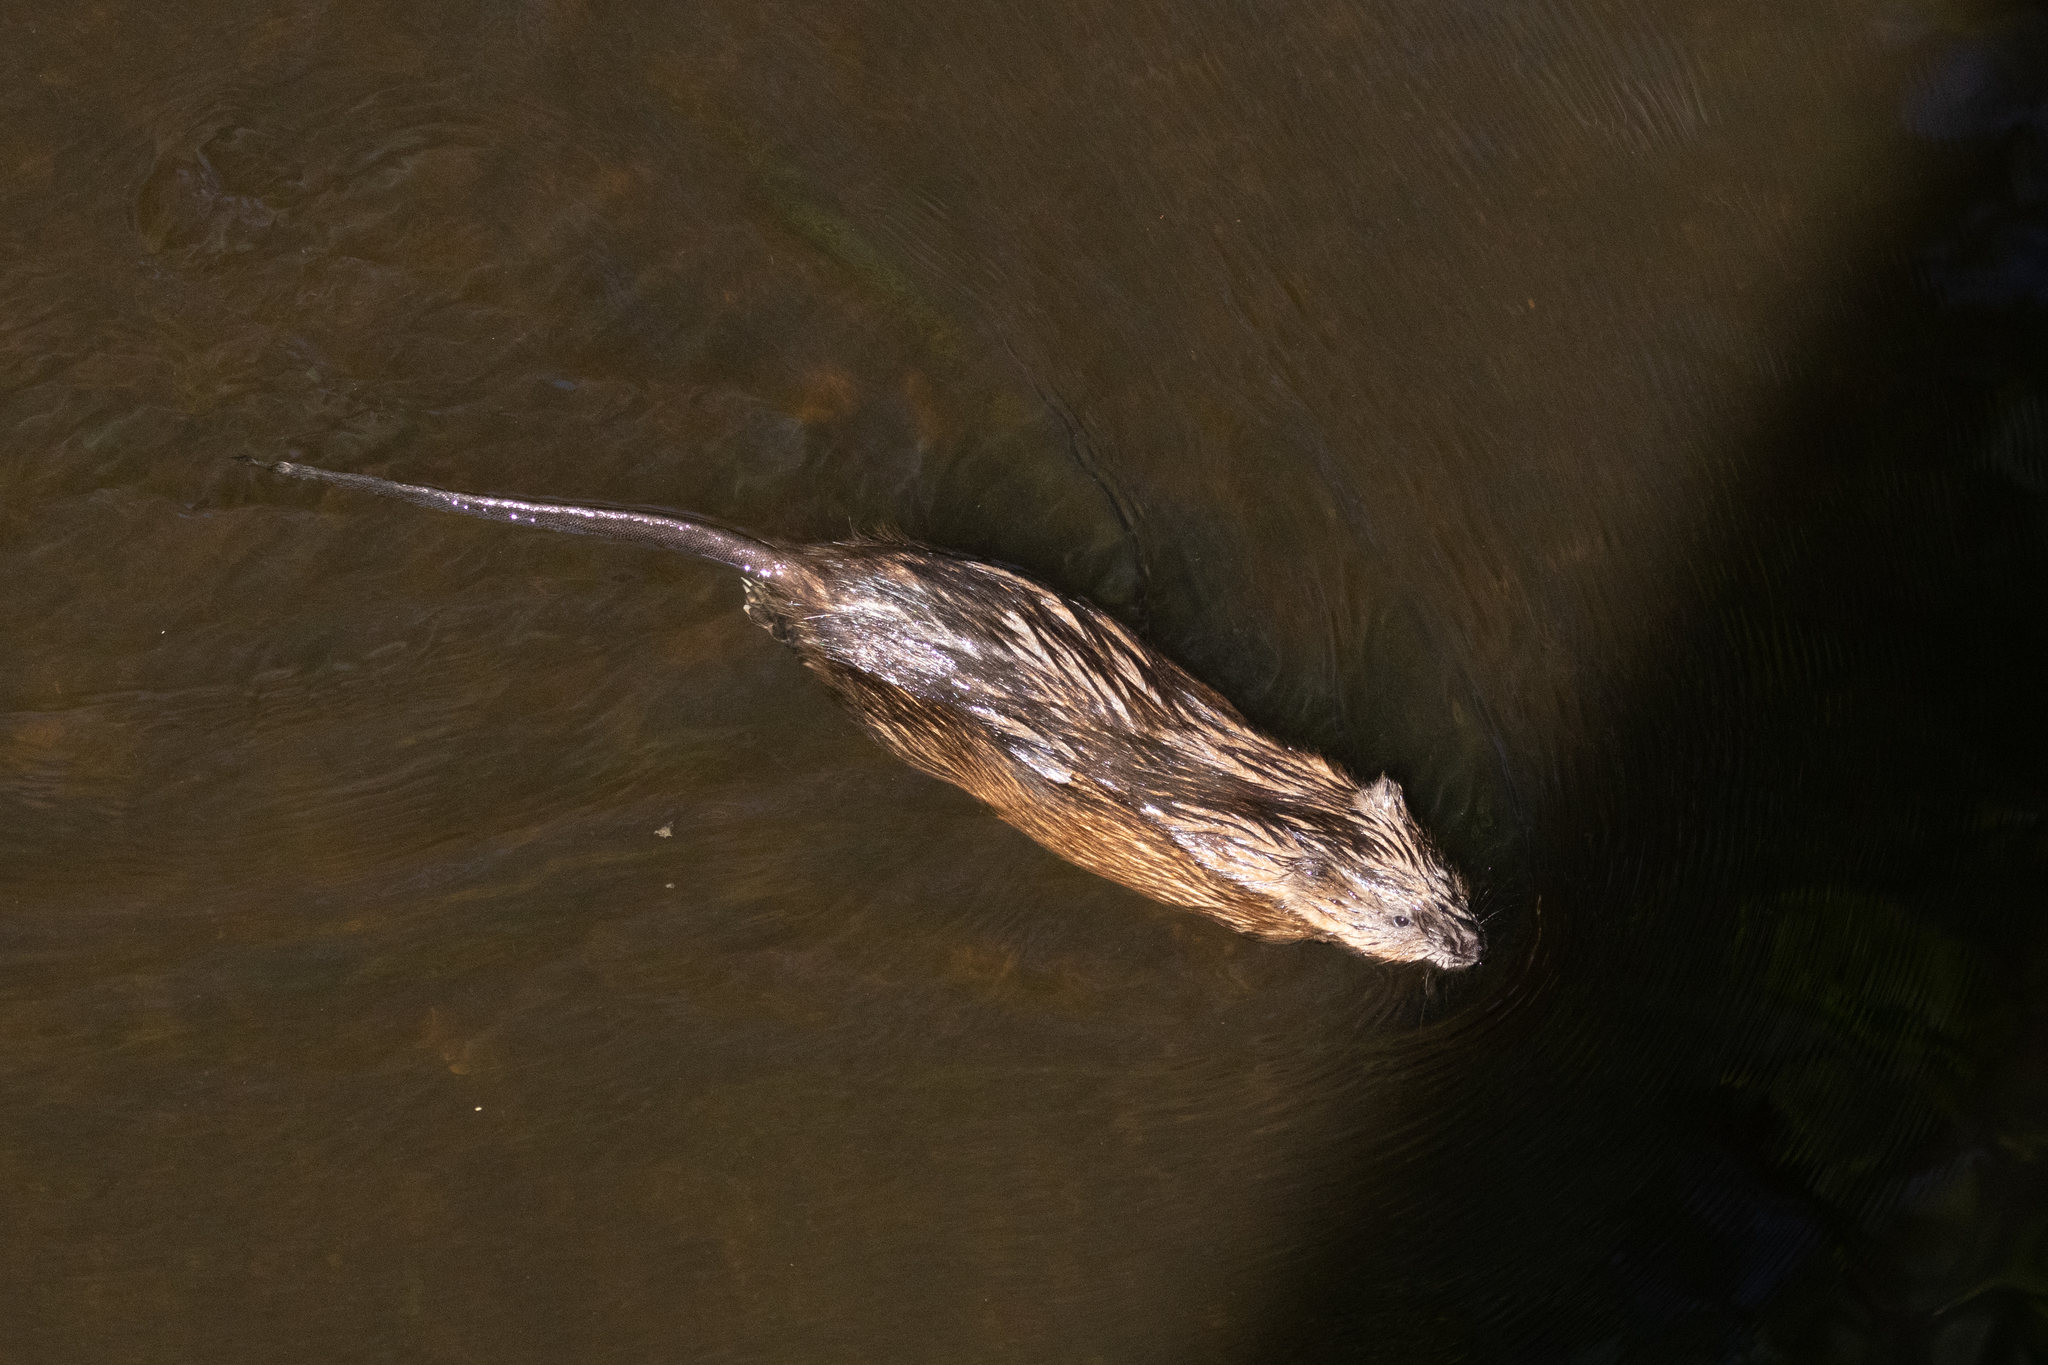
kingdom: Animalia
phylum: Chordata
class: Mammalia
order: Rodentia
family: Cricetidae
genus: Ondatra
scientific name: Ondatra zibethicus
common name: Muskrat
